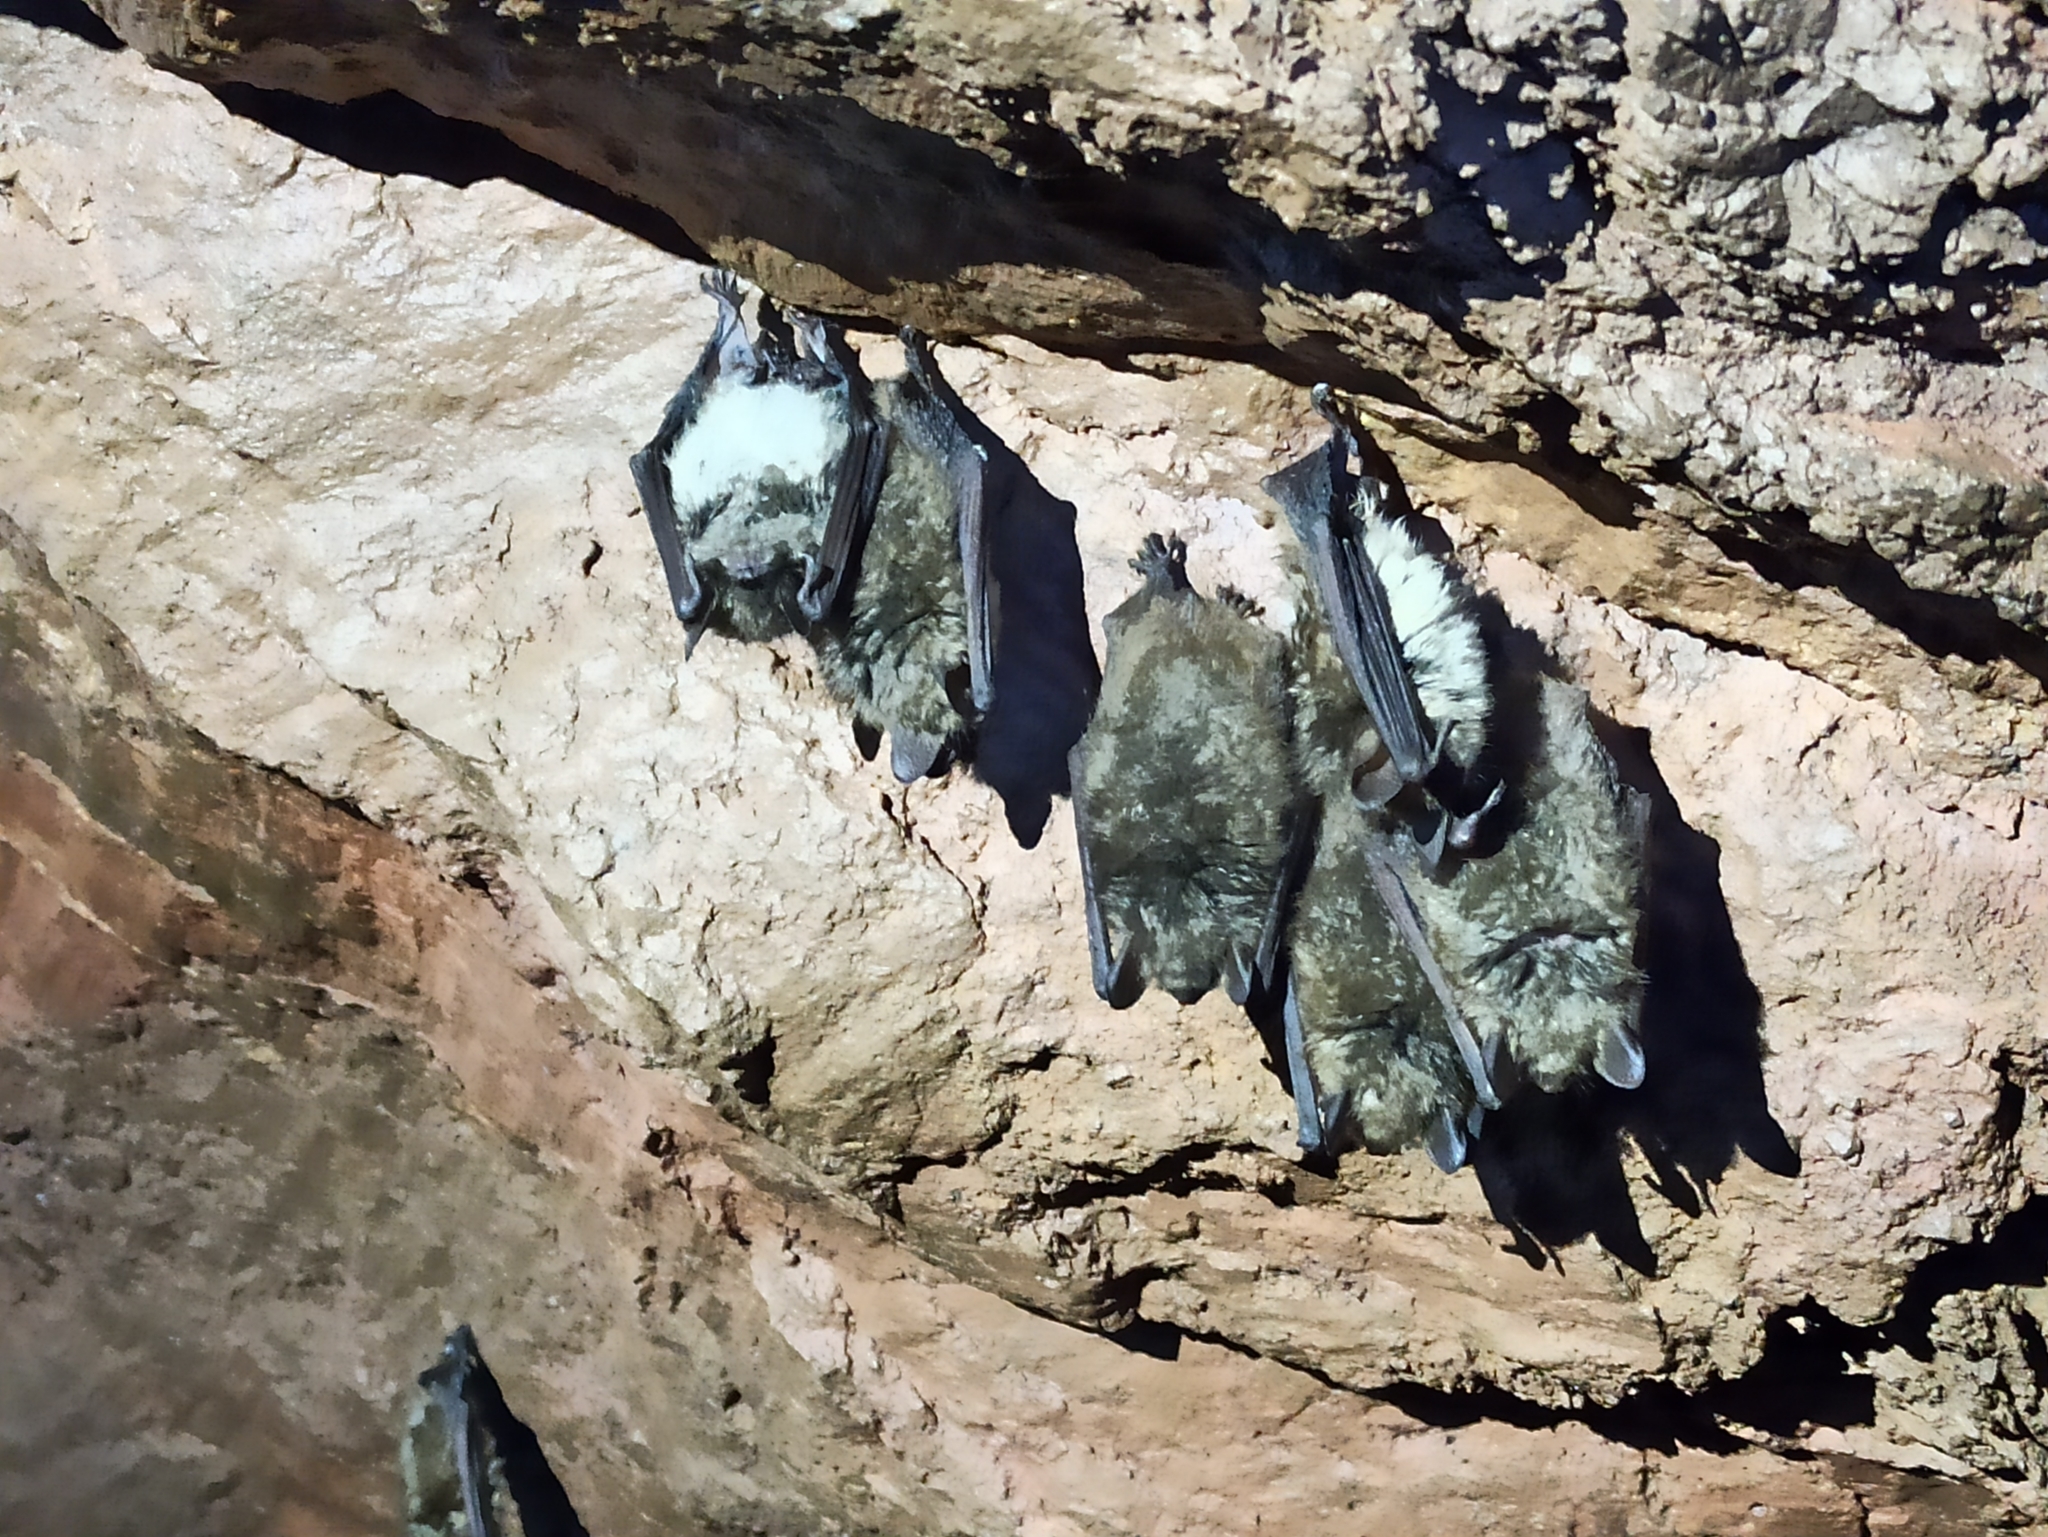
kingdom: Animalia
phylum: Chordata
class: Mammalia
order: Chiroptera
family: Vespertilionidae
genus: Myotis
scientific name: Myotis emarginatus
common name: Geoffroy's bat
